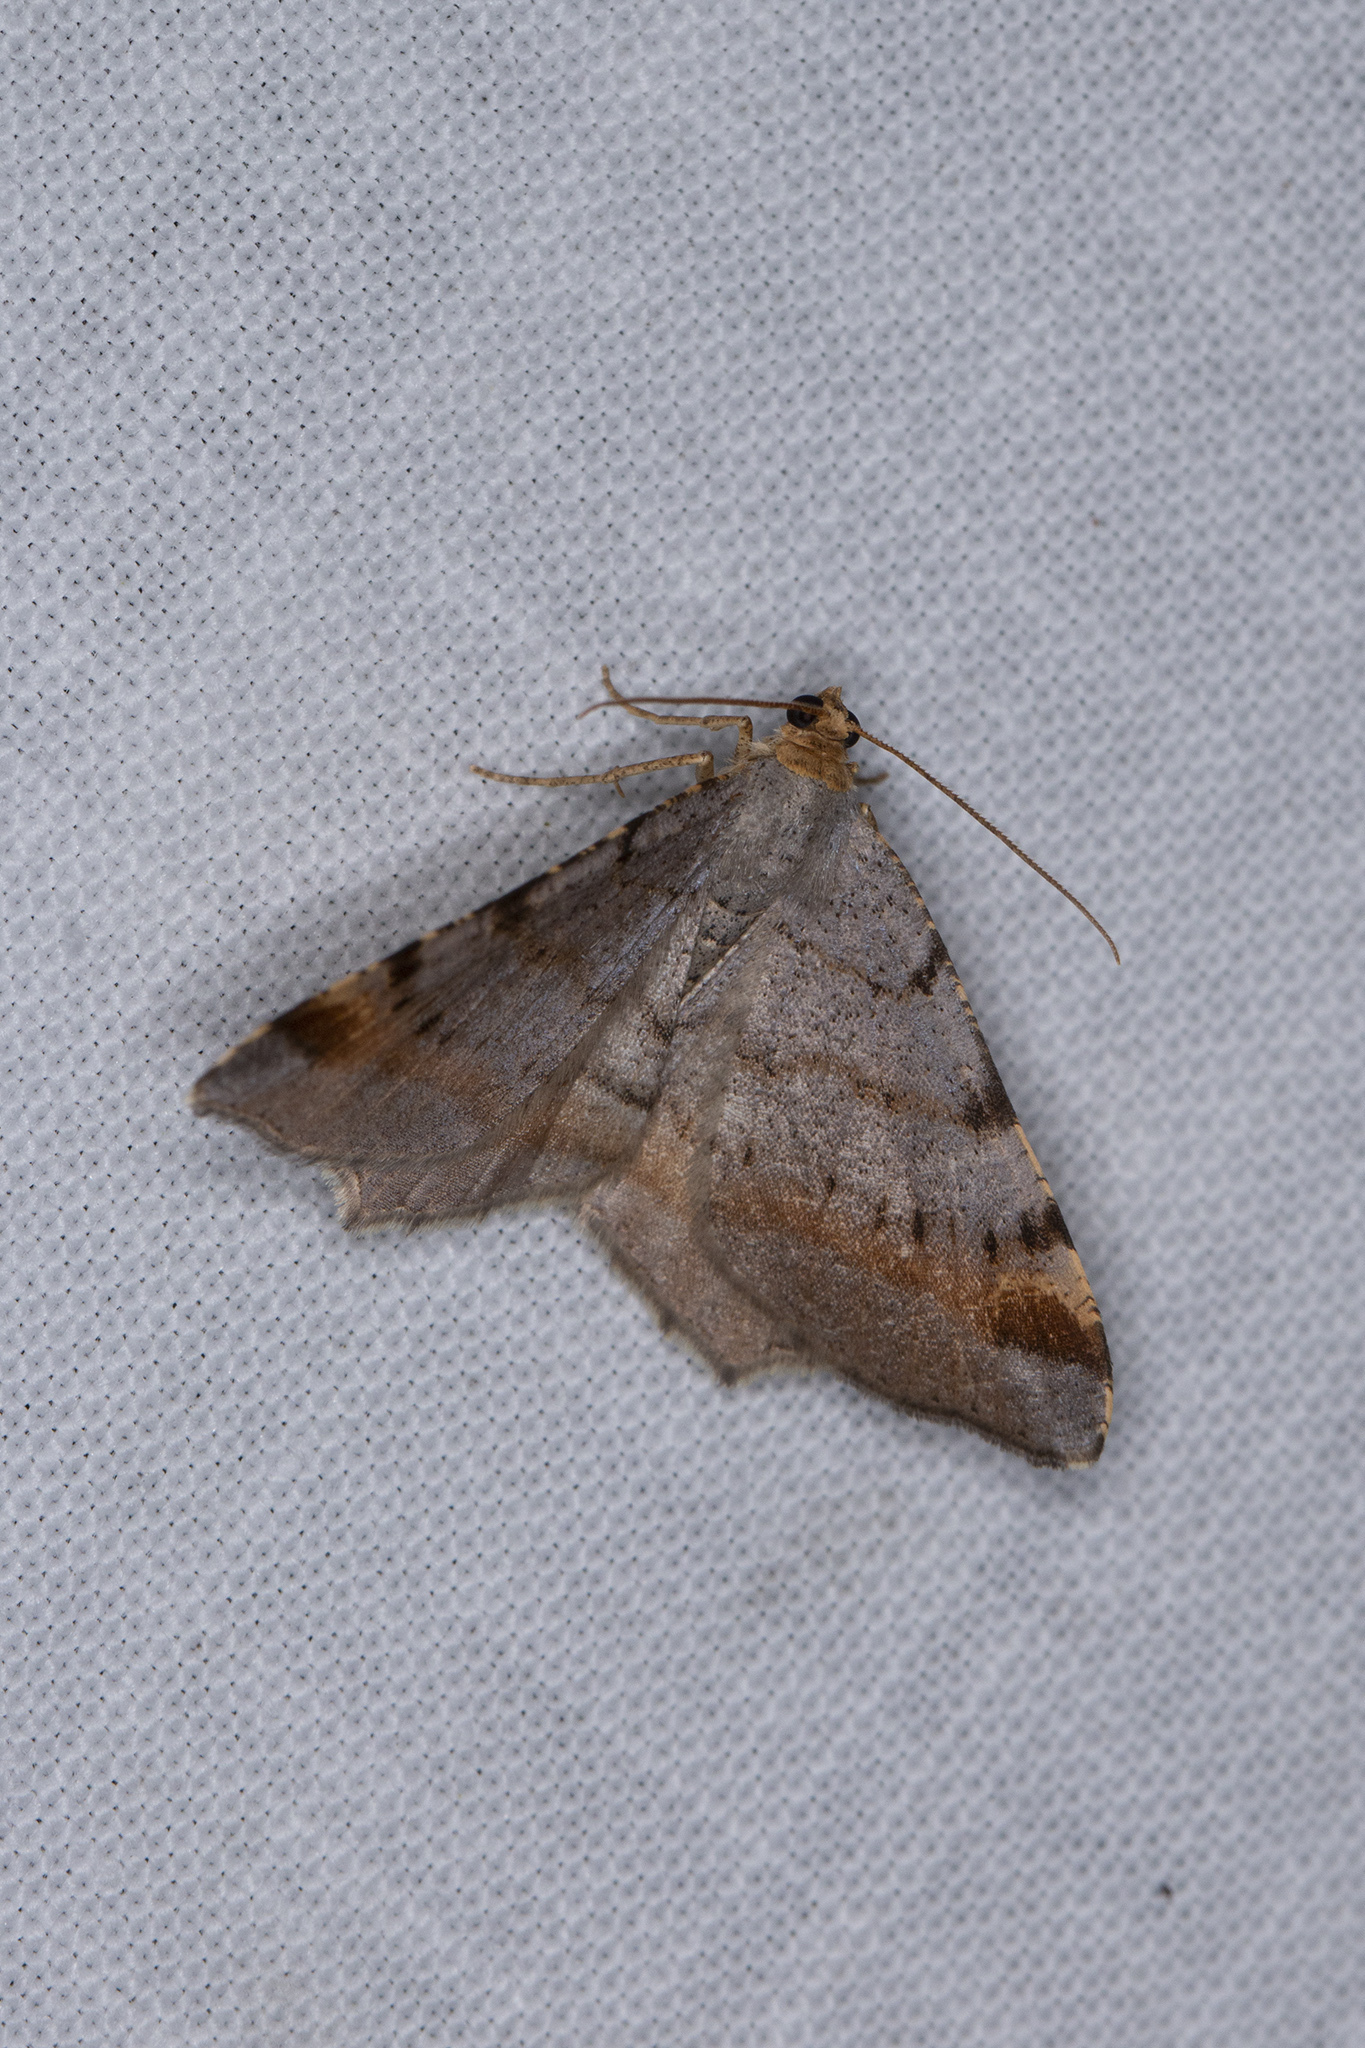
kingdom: Animalia
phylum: Arthropoda
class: Insecta
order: Lepidoptera
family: Geometridae
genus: Macaria
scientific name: Macaria liturata
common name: Tawny-barred angle
